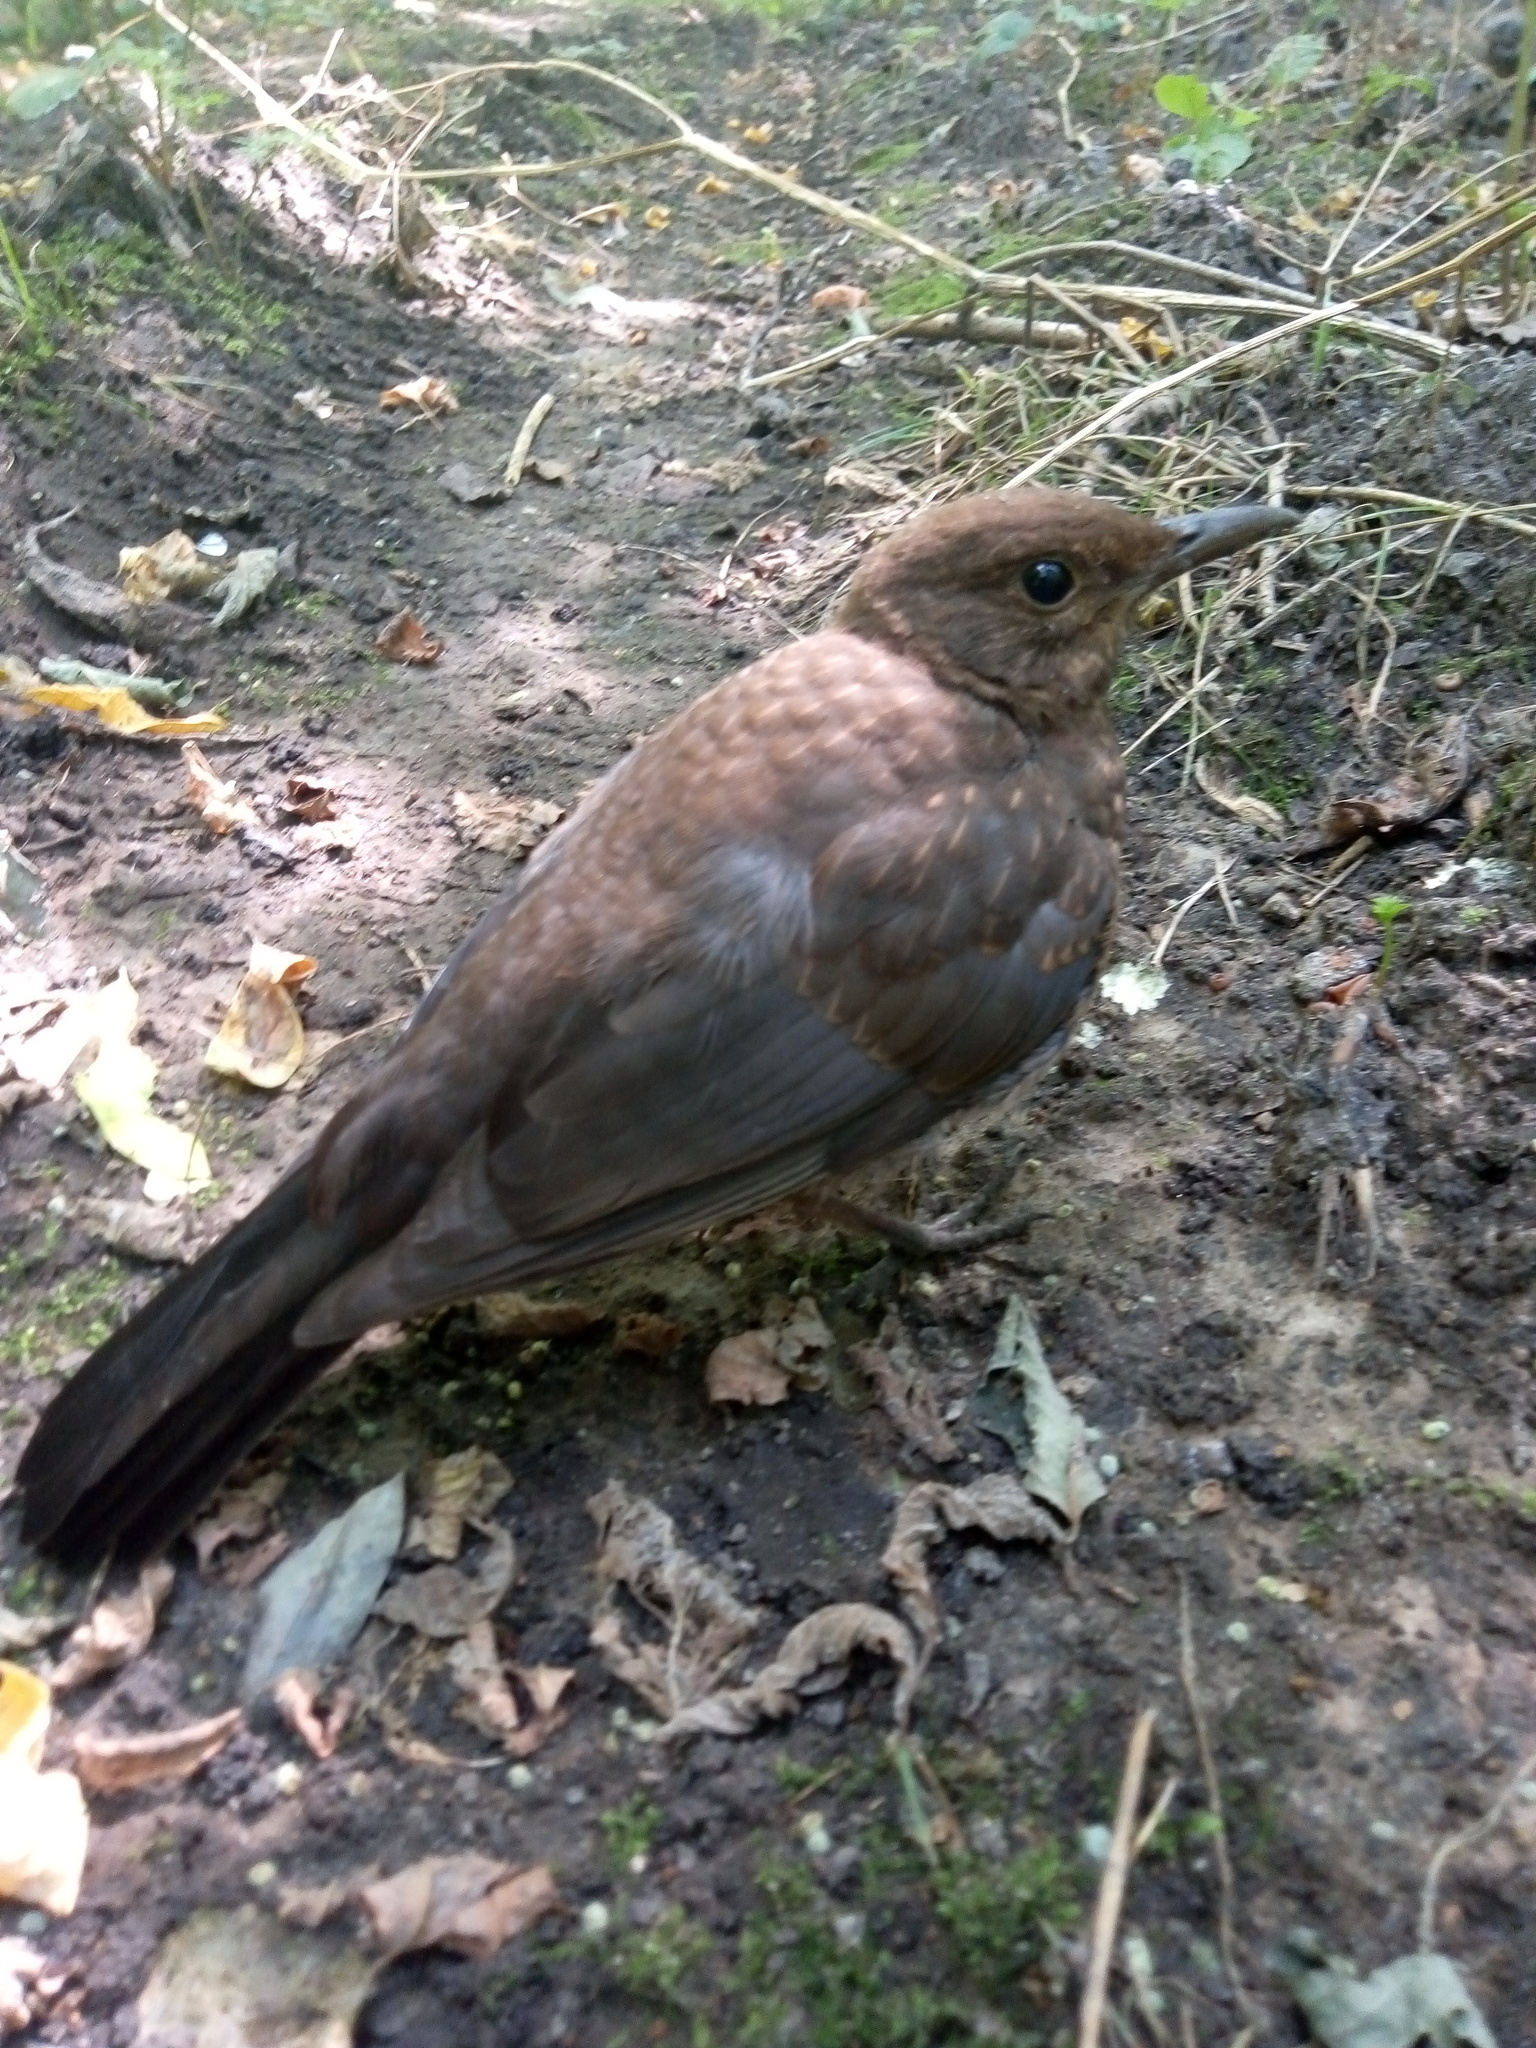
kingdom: Animalia
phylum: Chordata
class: Aves
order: Passeriformes
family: Turdidae
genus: Turdus
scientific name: Turdus merula
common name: Common blackbird
